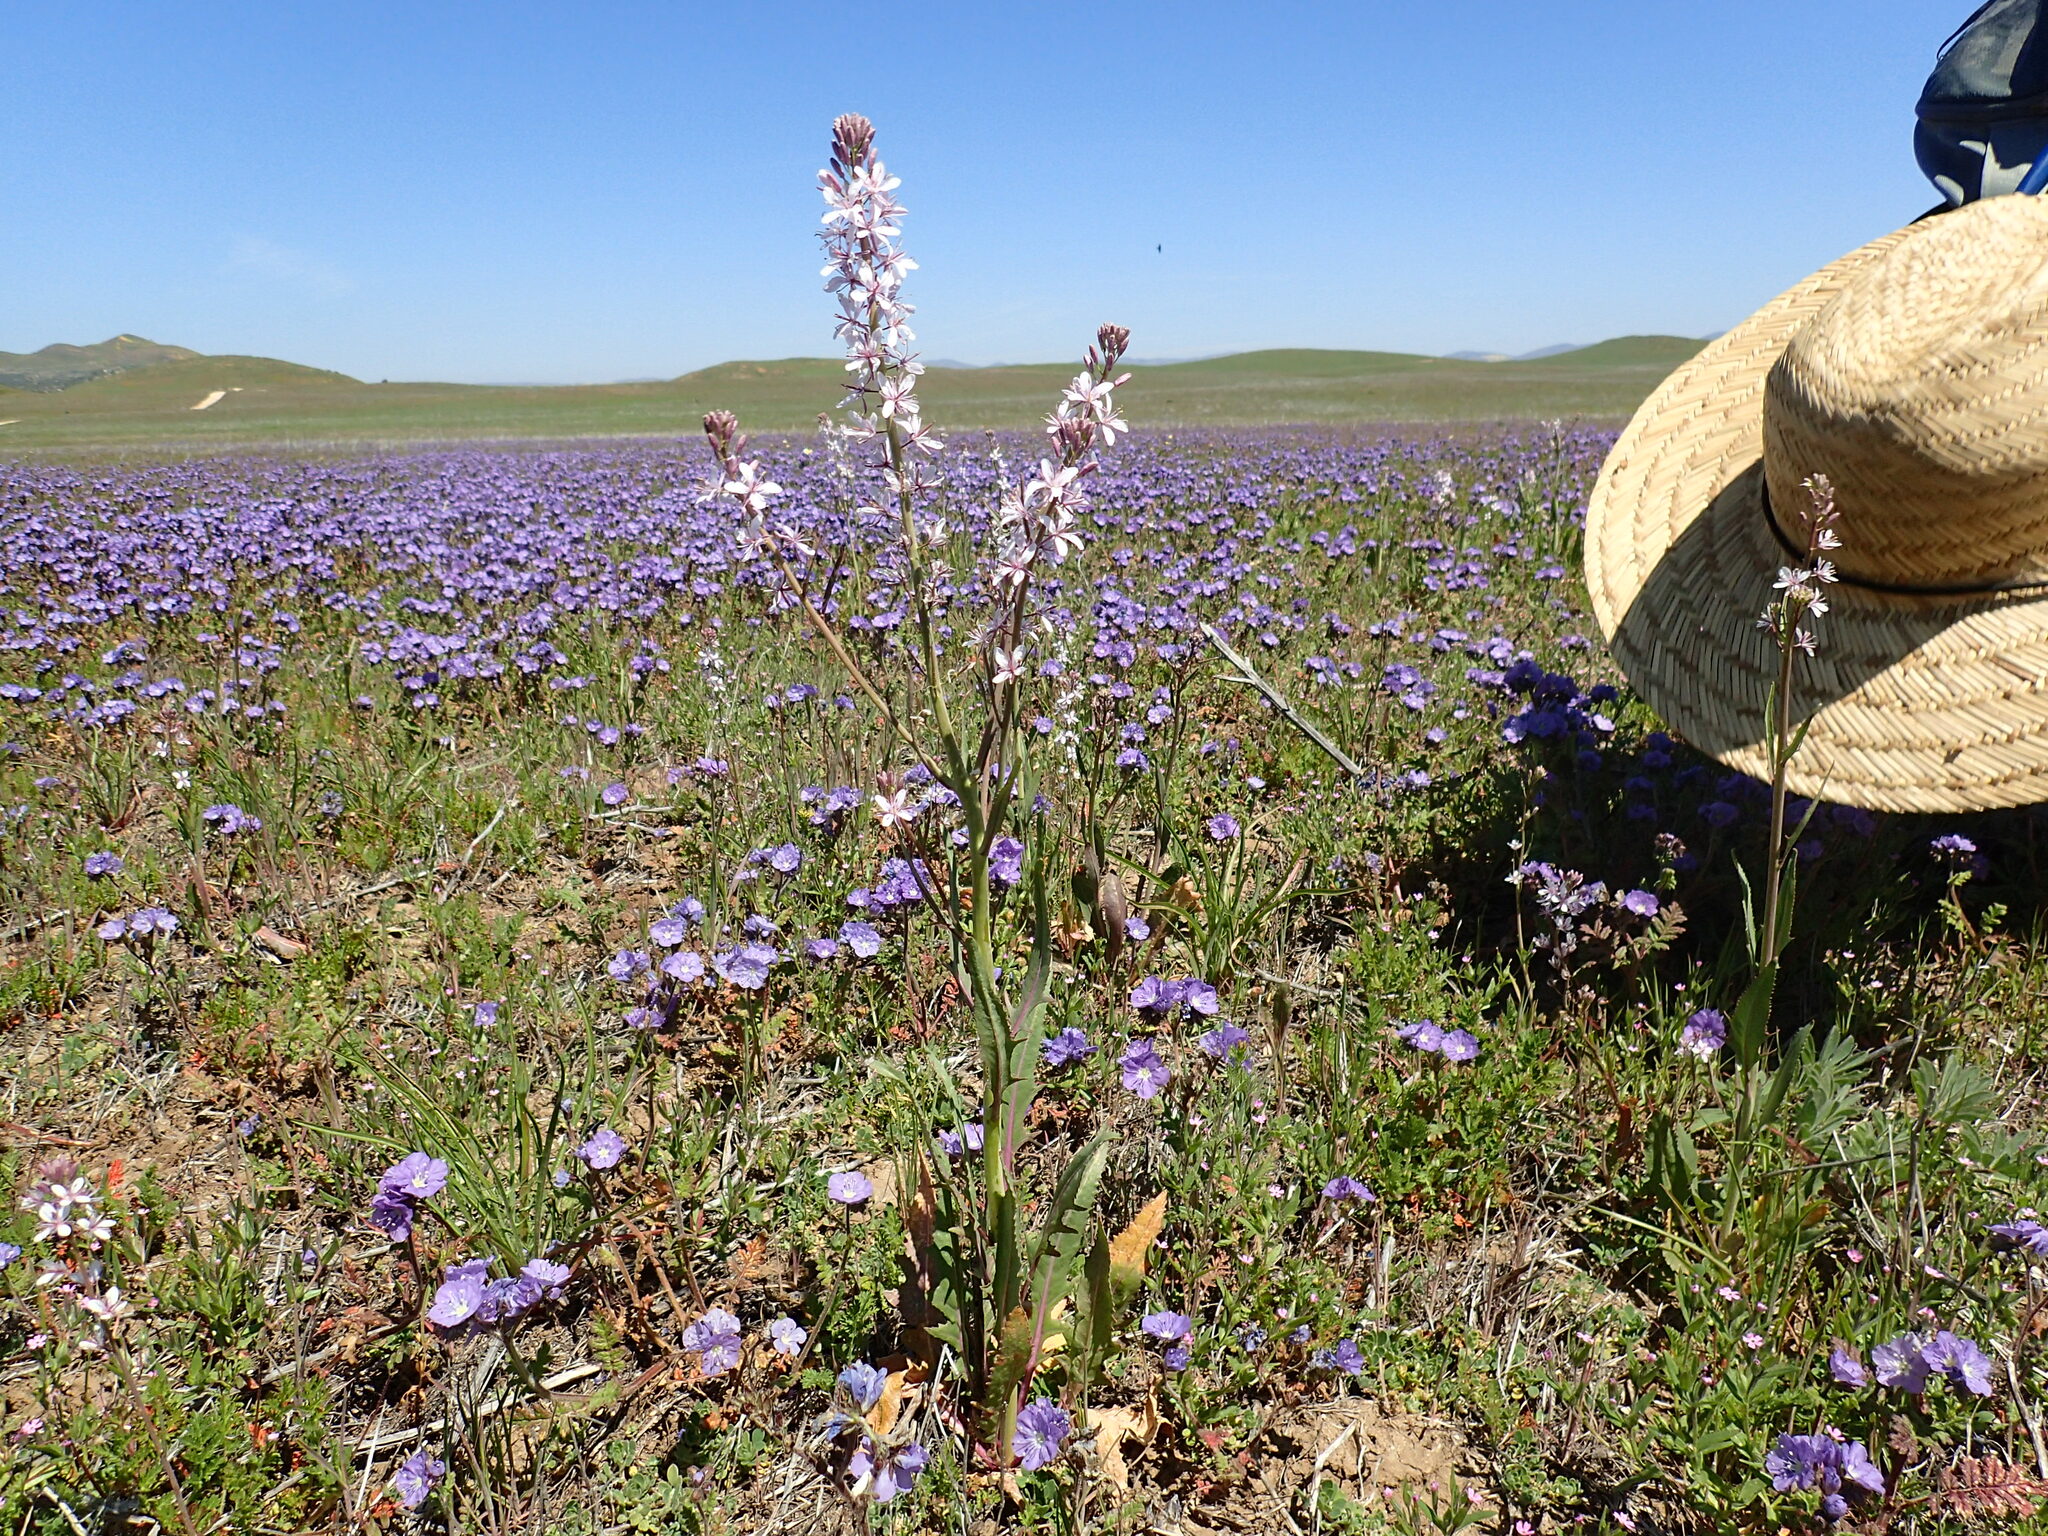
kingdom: Plantae
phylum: Tracheophyta
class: Magnoliopsida
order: Brassicales
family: Brassicaceae
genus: Streptanthus
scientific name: Streptanthus anceps
